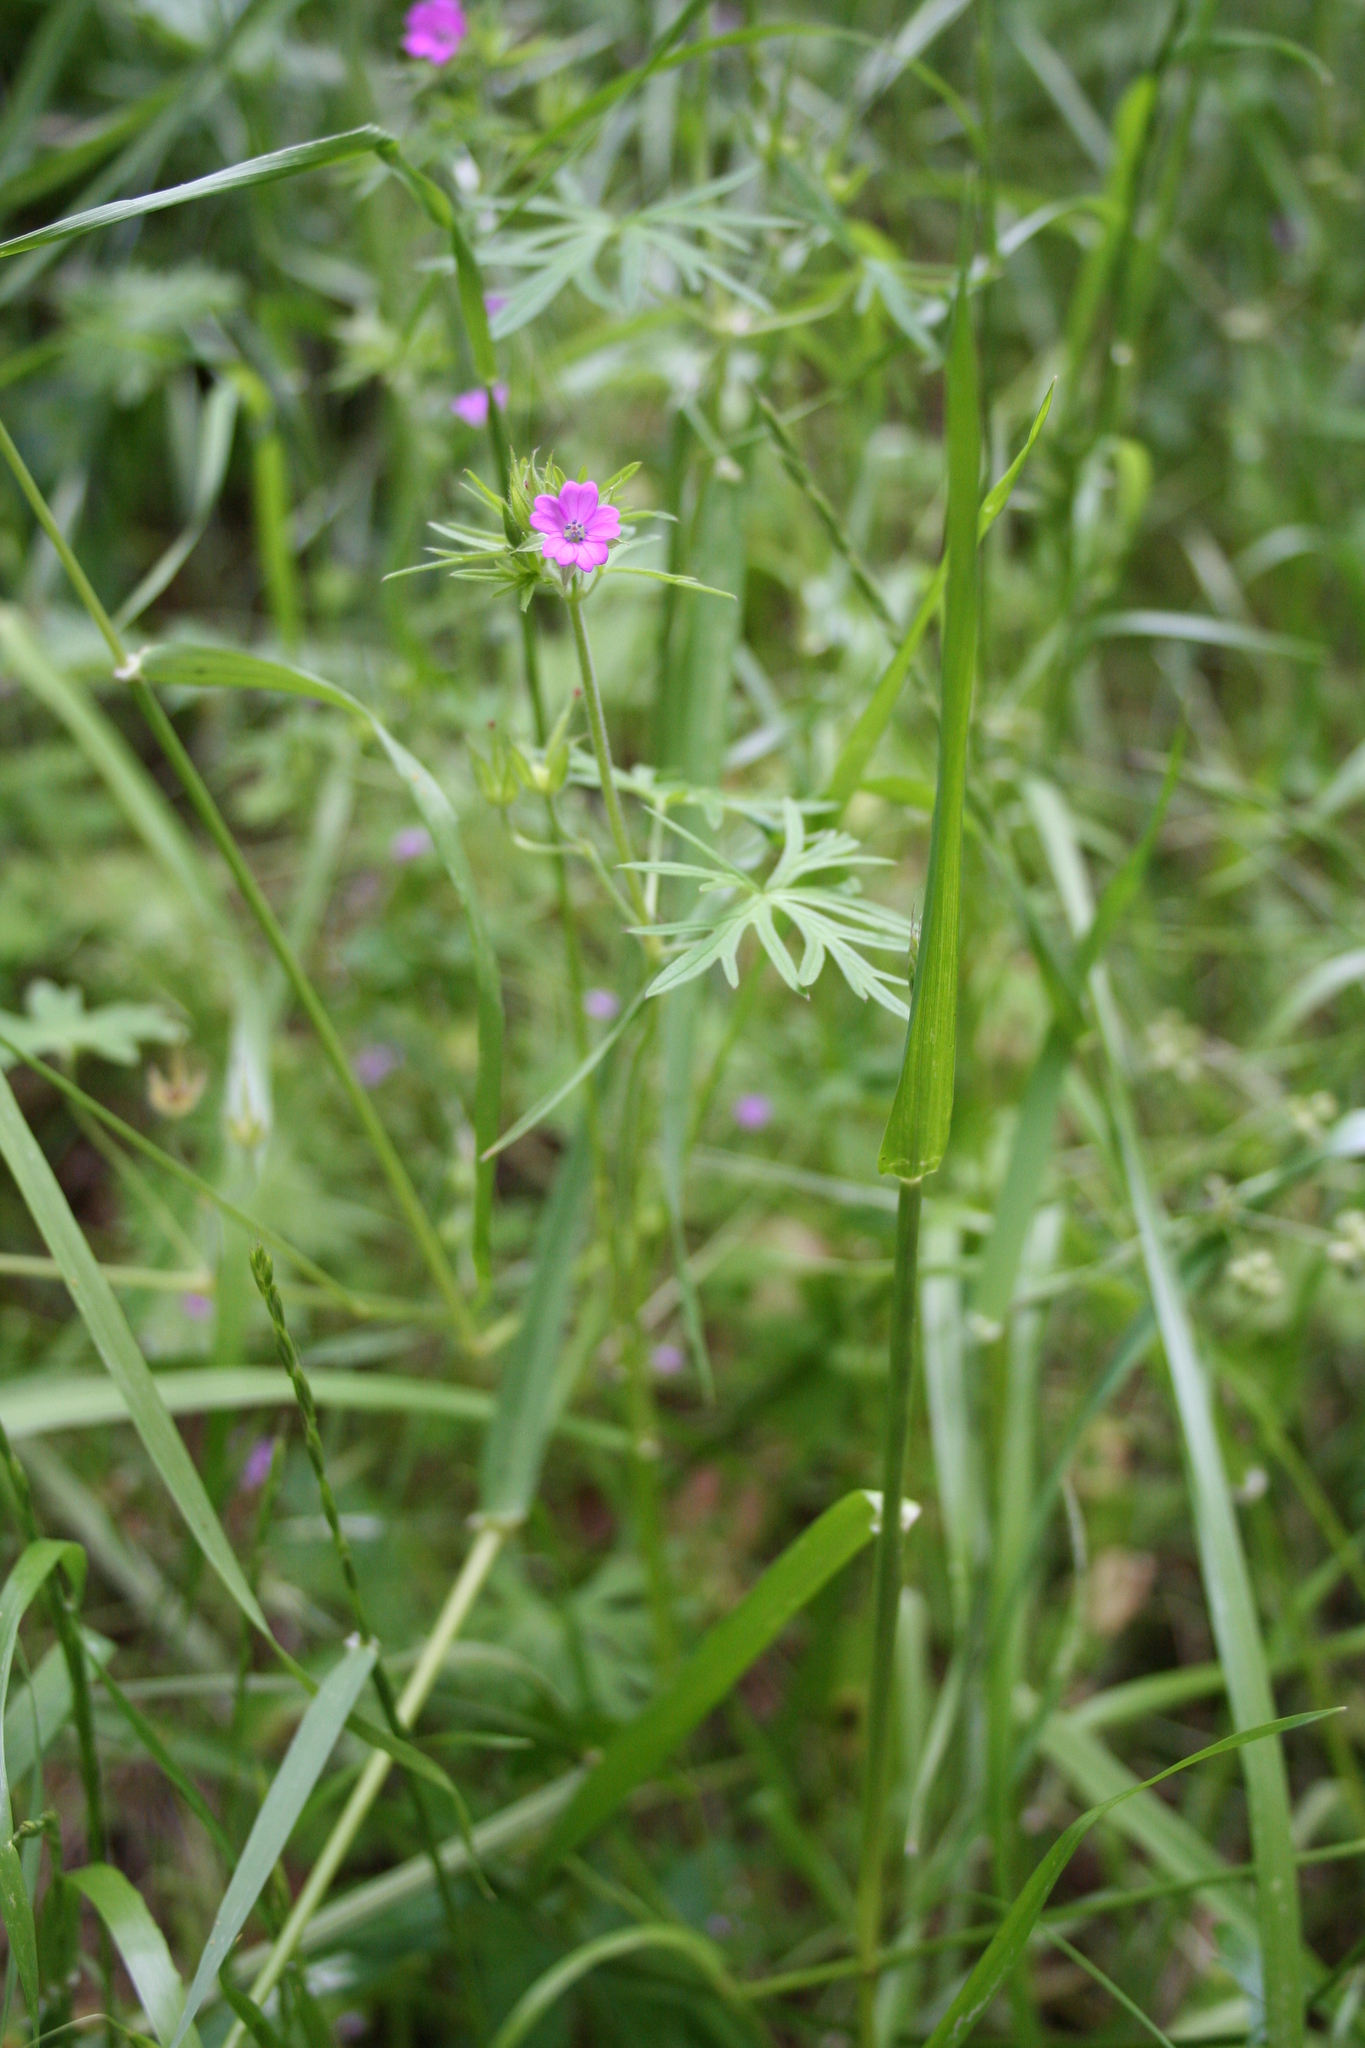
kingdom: Plantae
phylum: Tracheophyta
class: Magnoliopsida
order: Geraniales
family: Geraniaceae
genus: Geranium
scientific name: Geranium dissectum
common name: Cut-leaved crane's-bill
